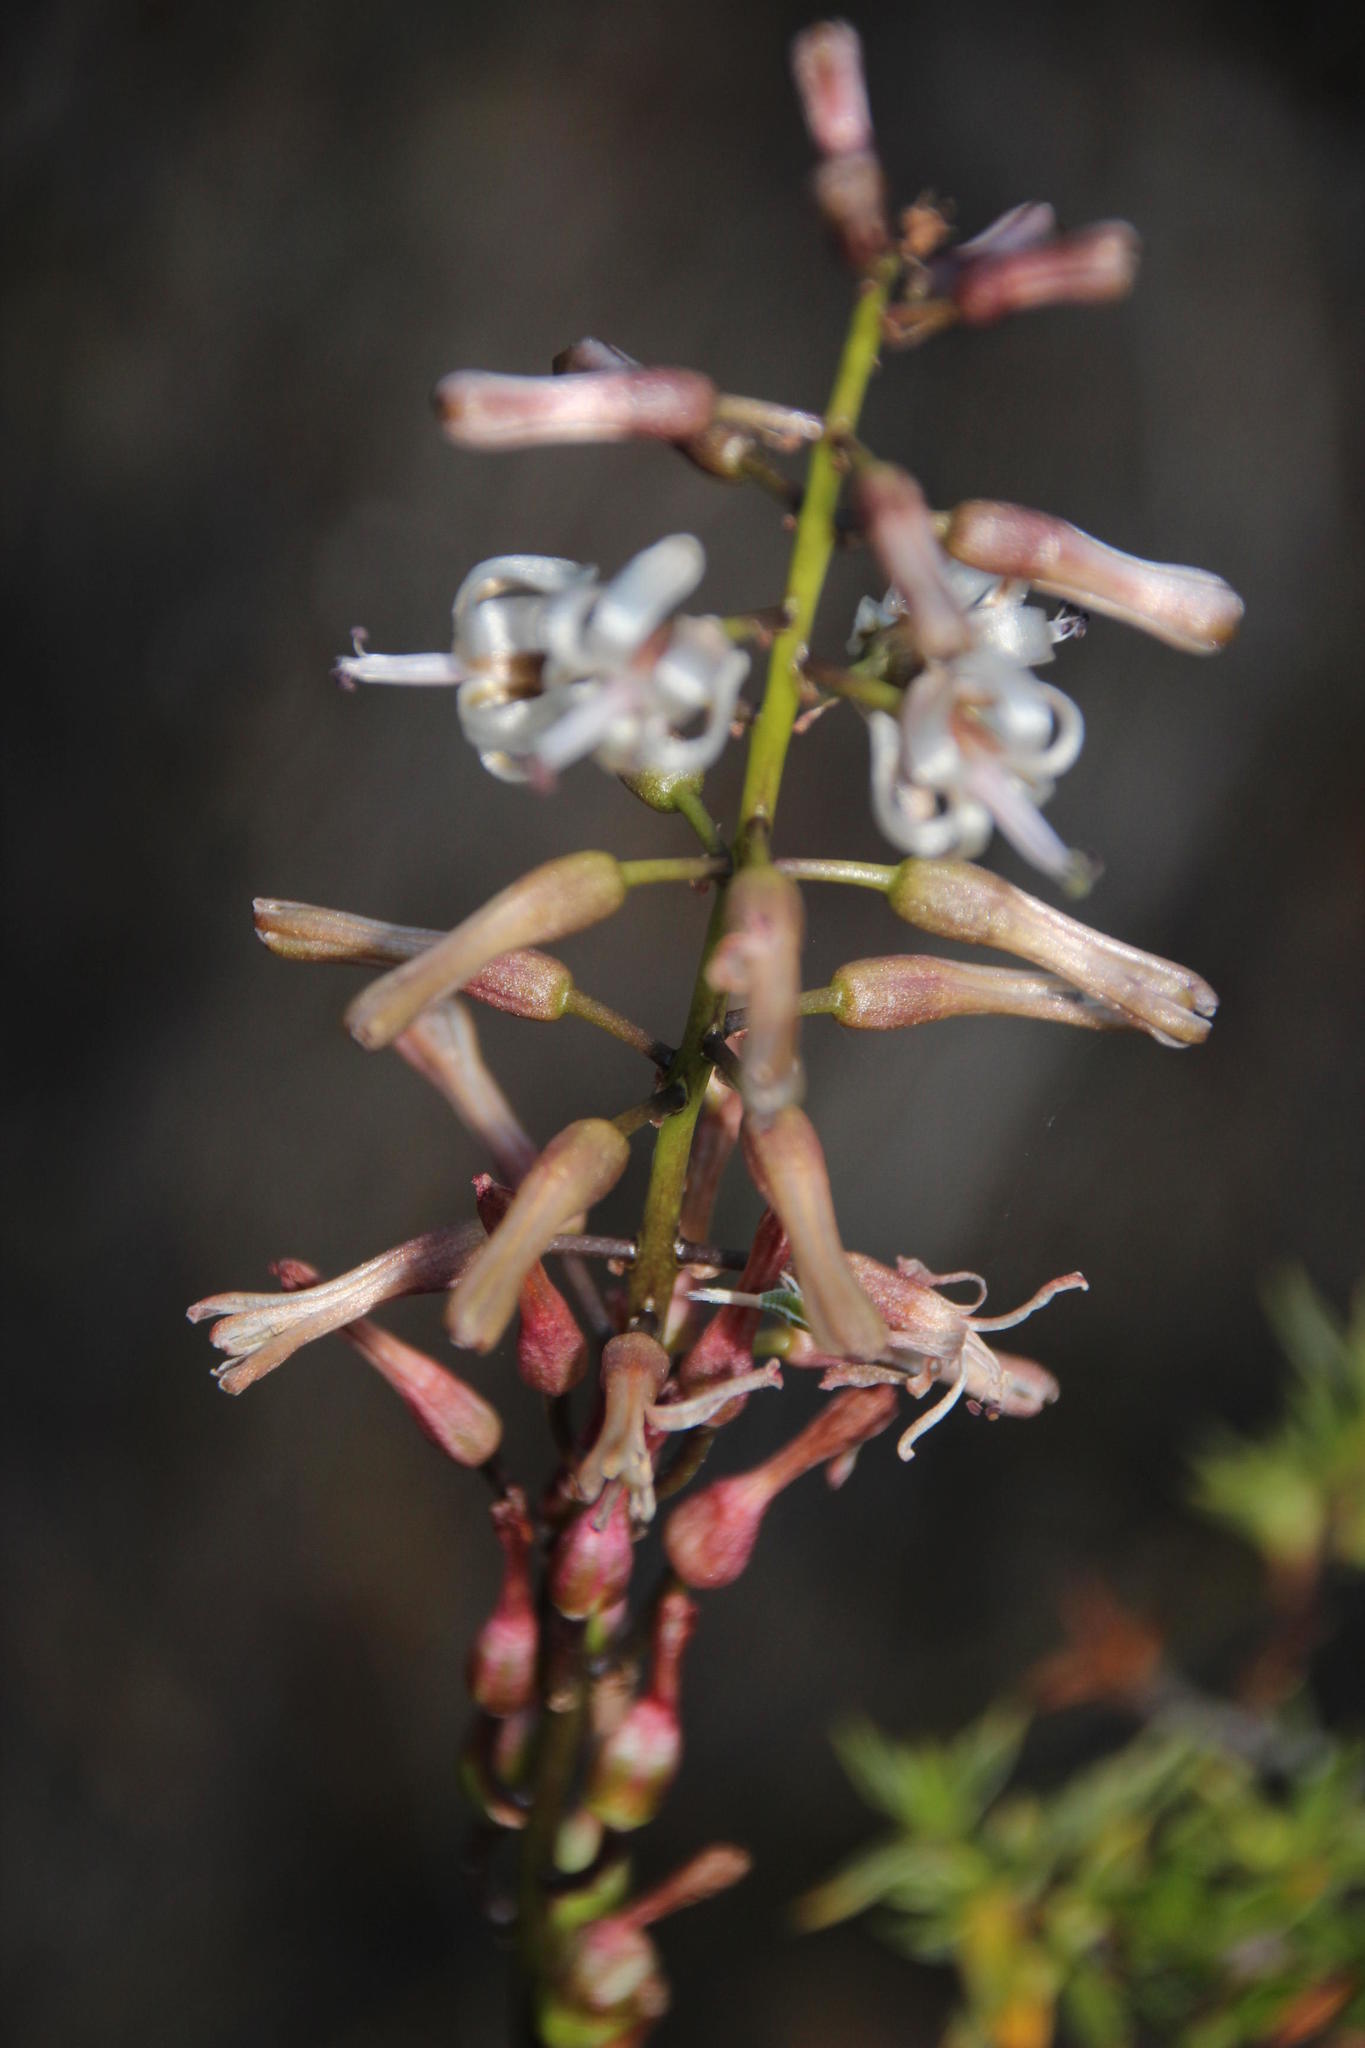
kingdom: Plantae
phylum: Tracheophyta
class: Liliopsida
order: Asparagales
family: Asparagaceae
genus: Drimia
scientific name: Drimia media
